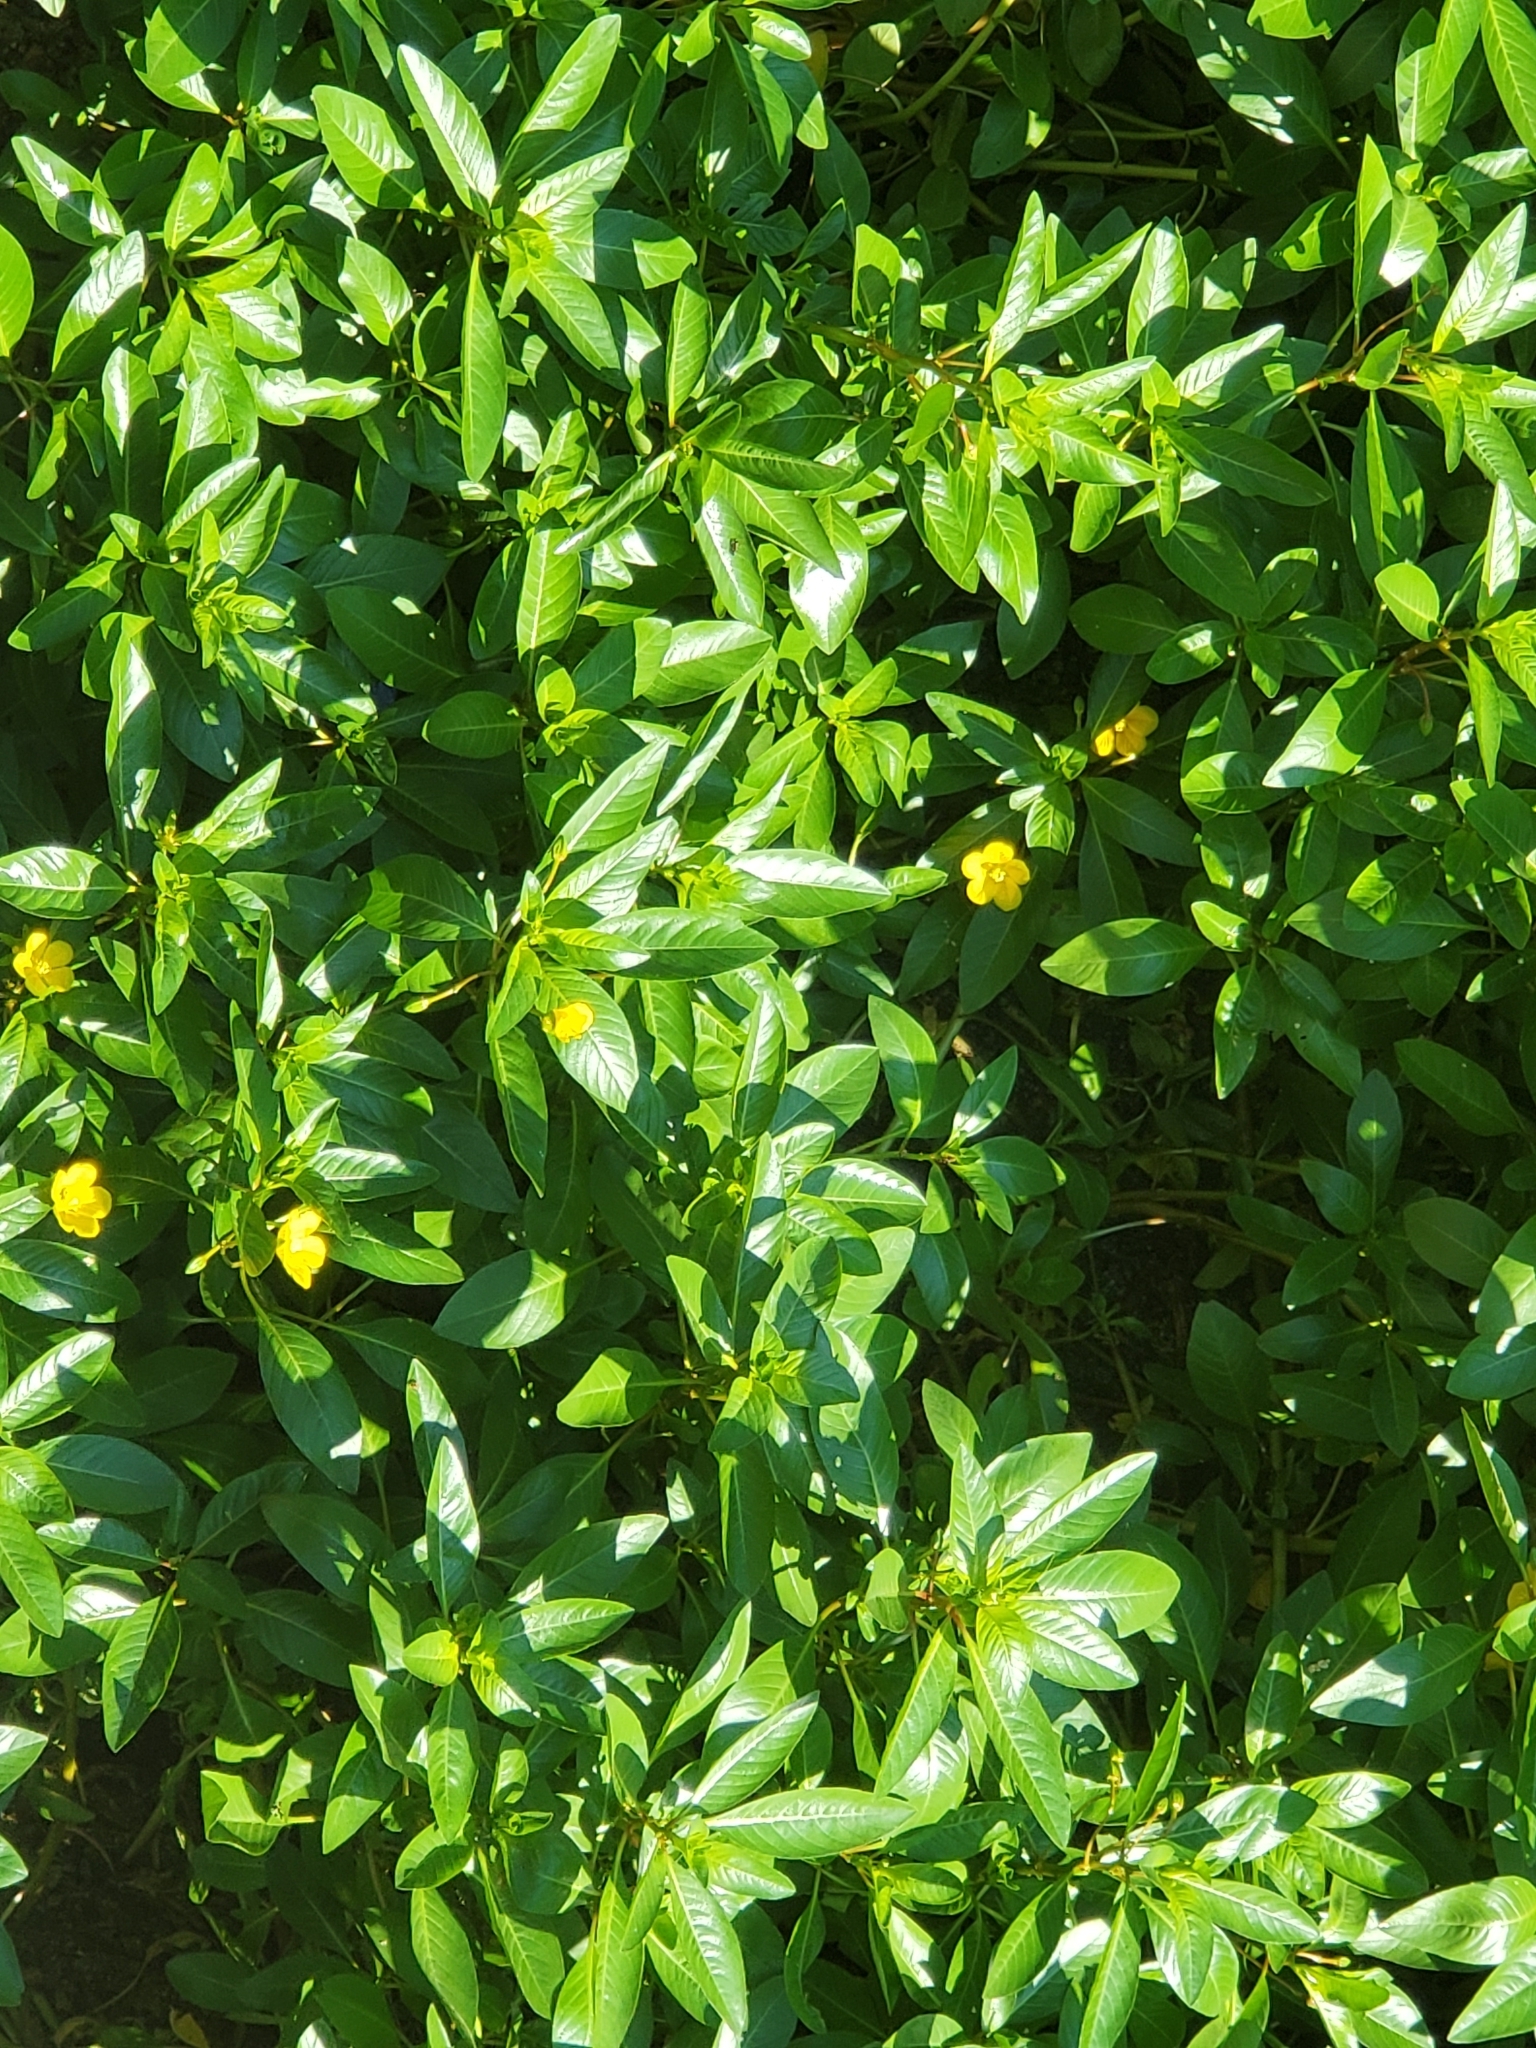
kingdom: Plantae
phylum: Tracheophyta
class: Magnoliopsida
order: Myrtales
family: Onagraceae
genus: Ludwigia
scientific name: Ludwigia peploides
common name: Floating primrose-willow
